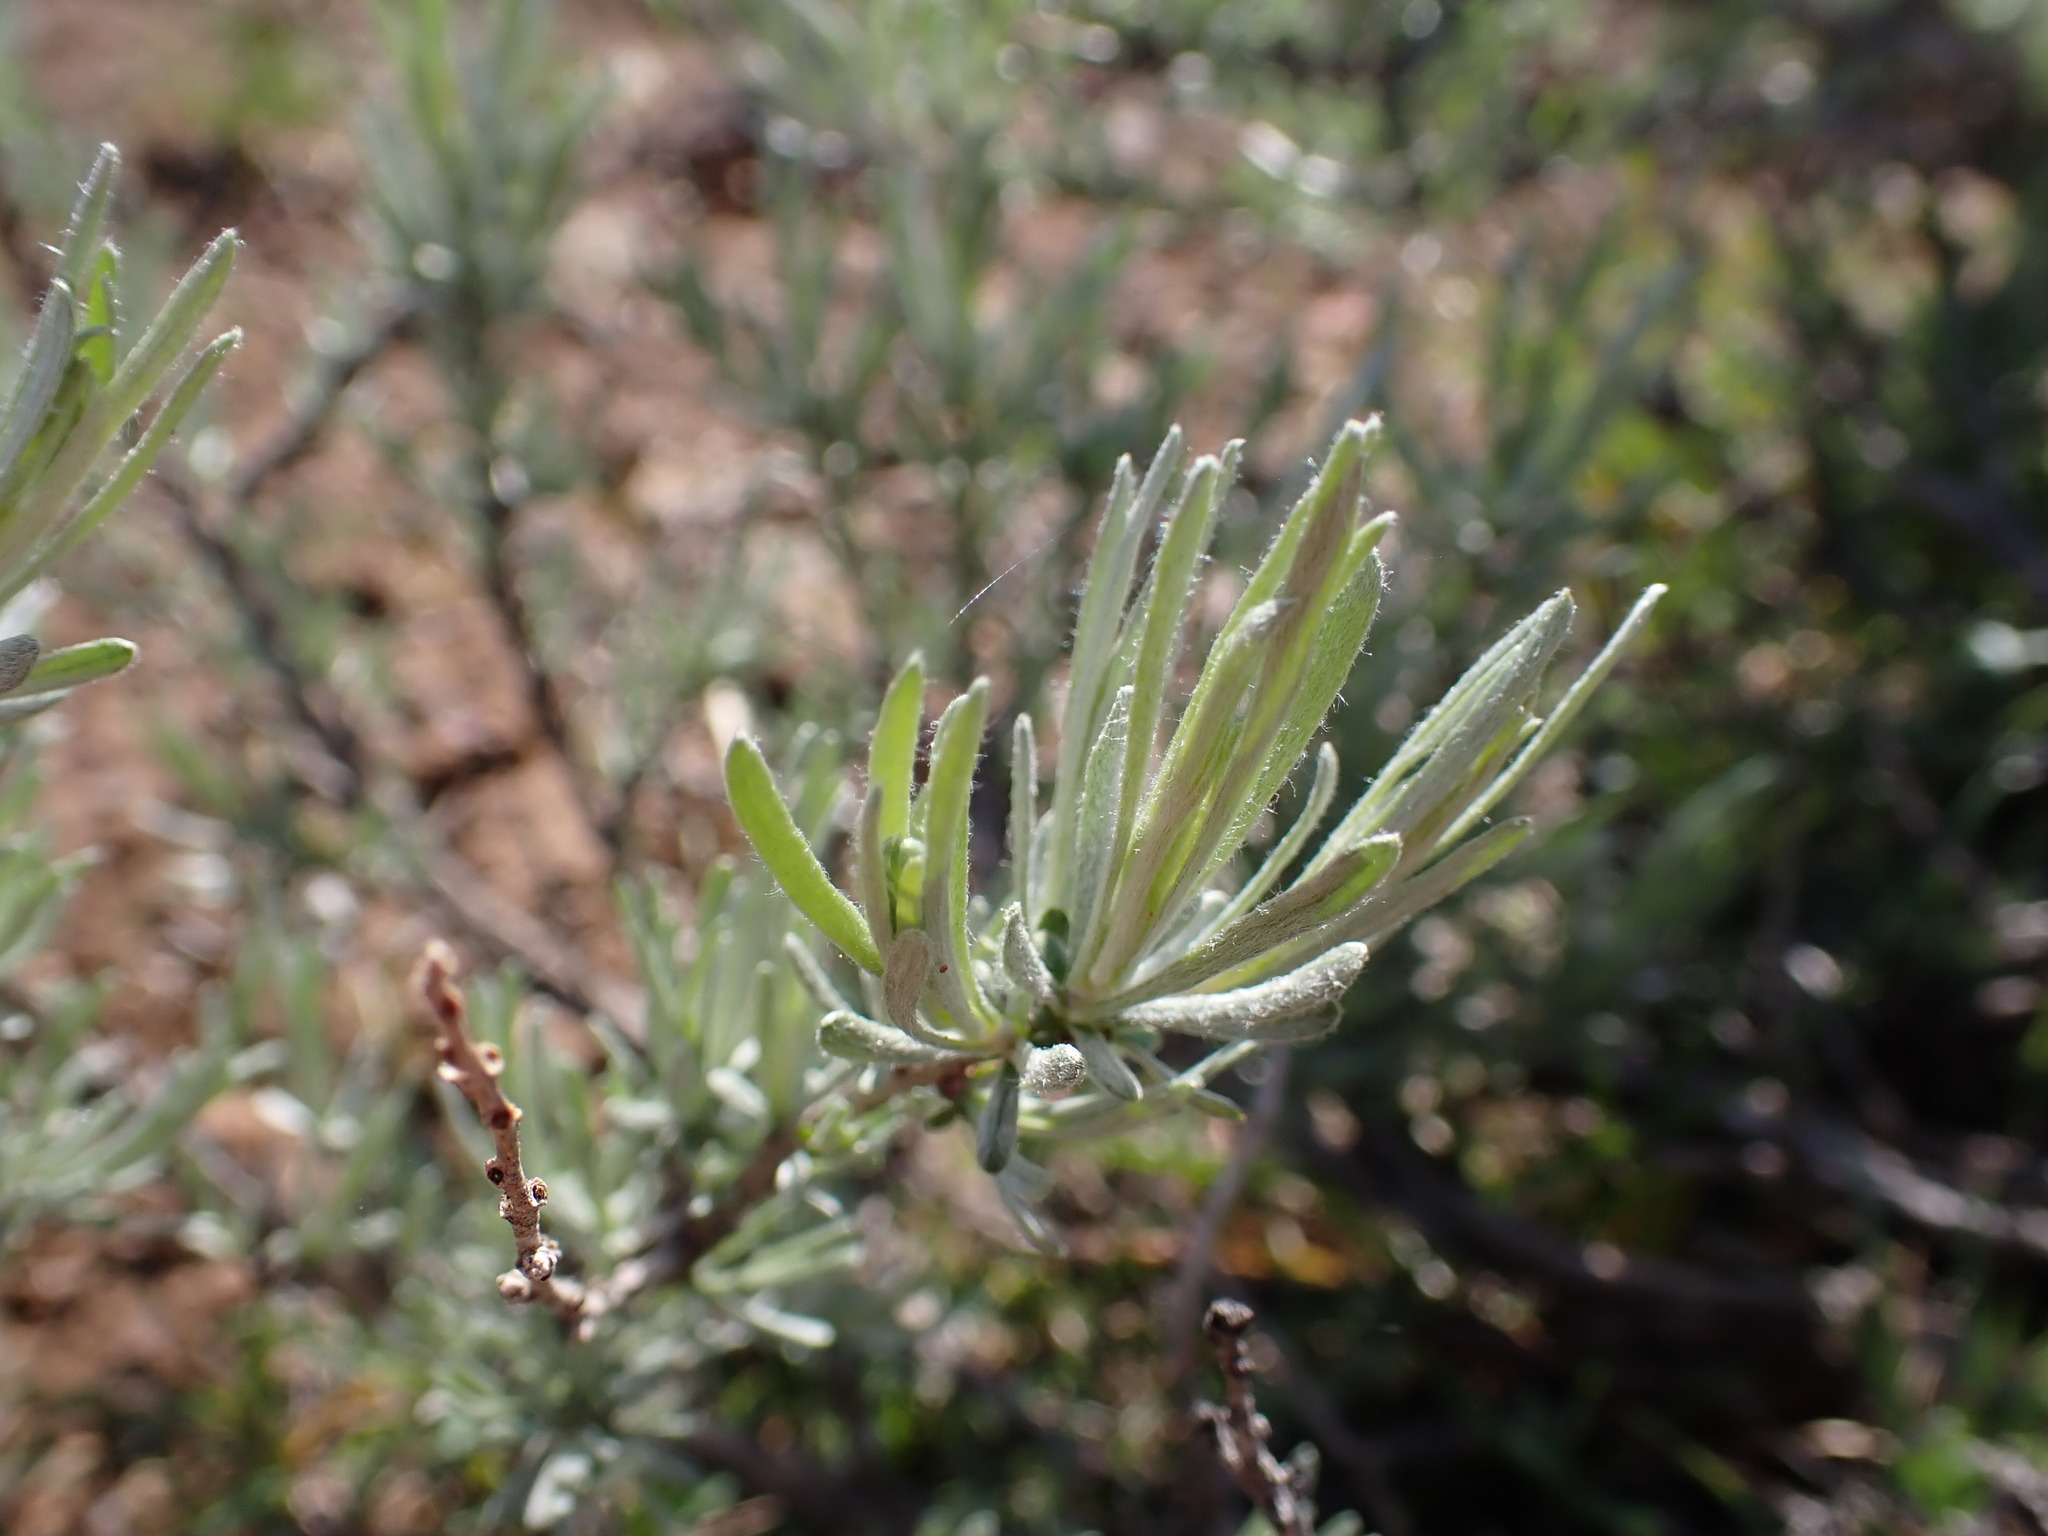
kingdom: Plantae
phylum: Tracheophyta
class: Magnoliopsida
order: Asterales
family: Asteraceae
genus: Artemisia
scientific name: Artemisia rigida
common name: Scabland sagebrush
